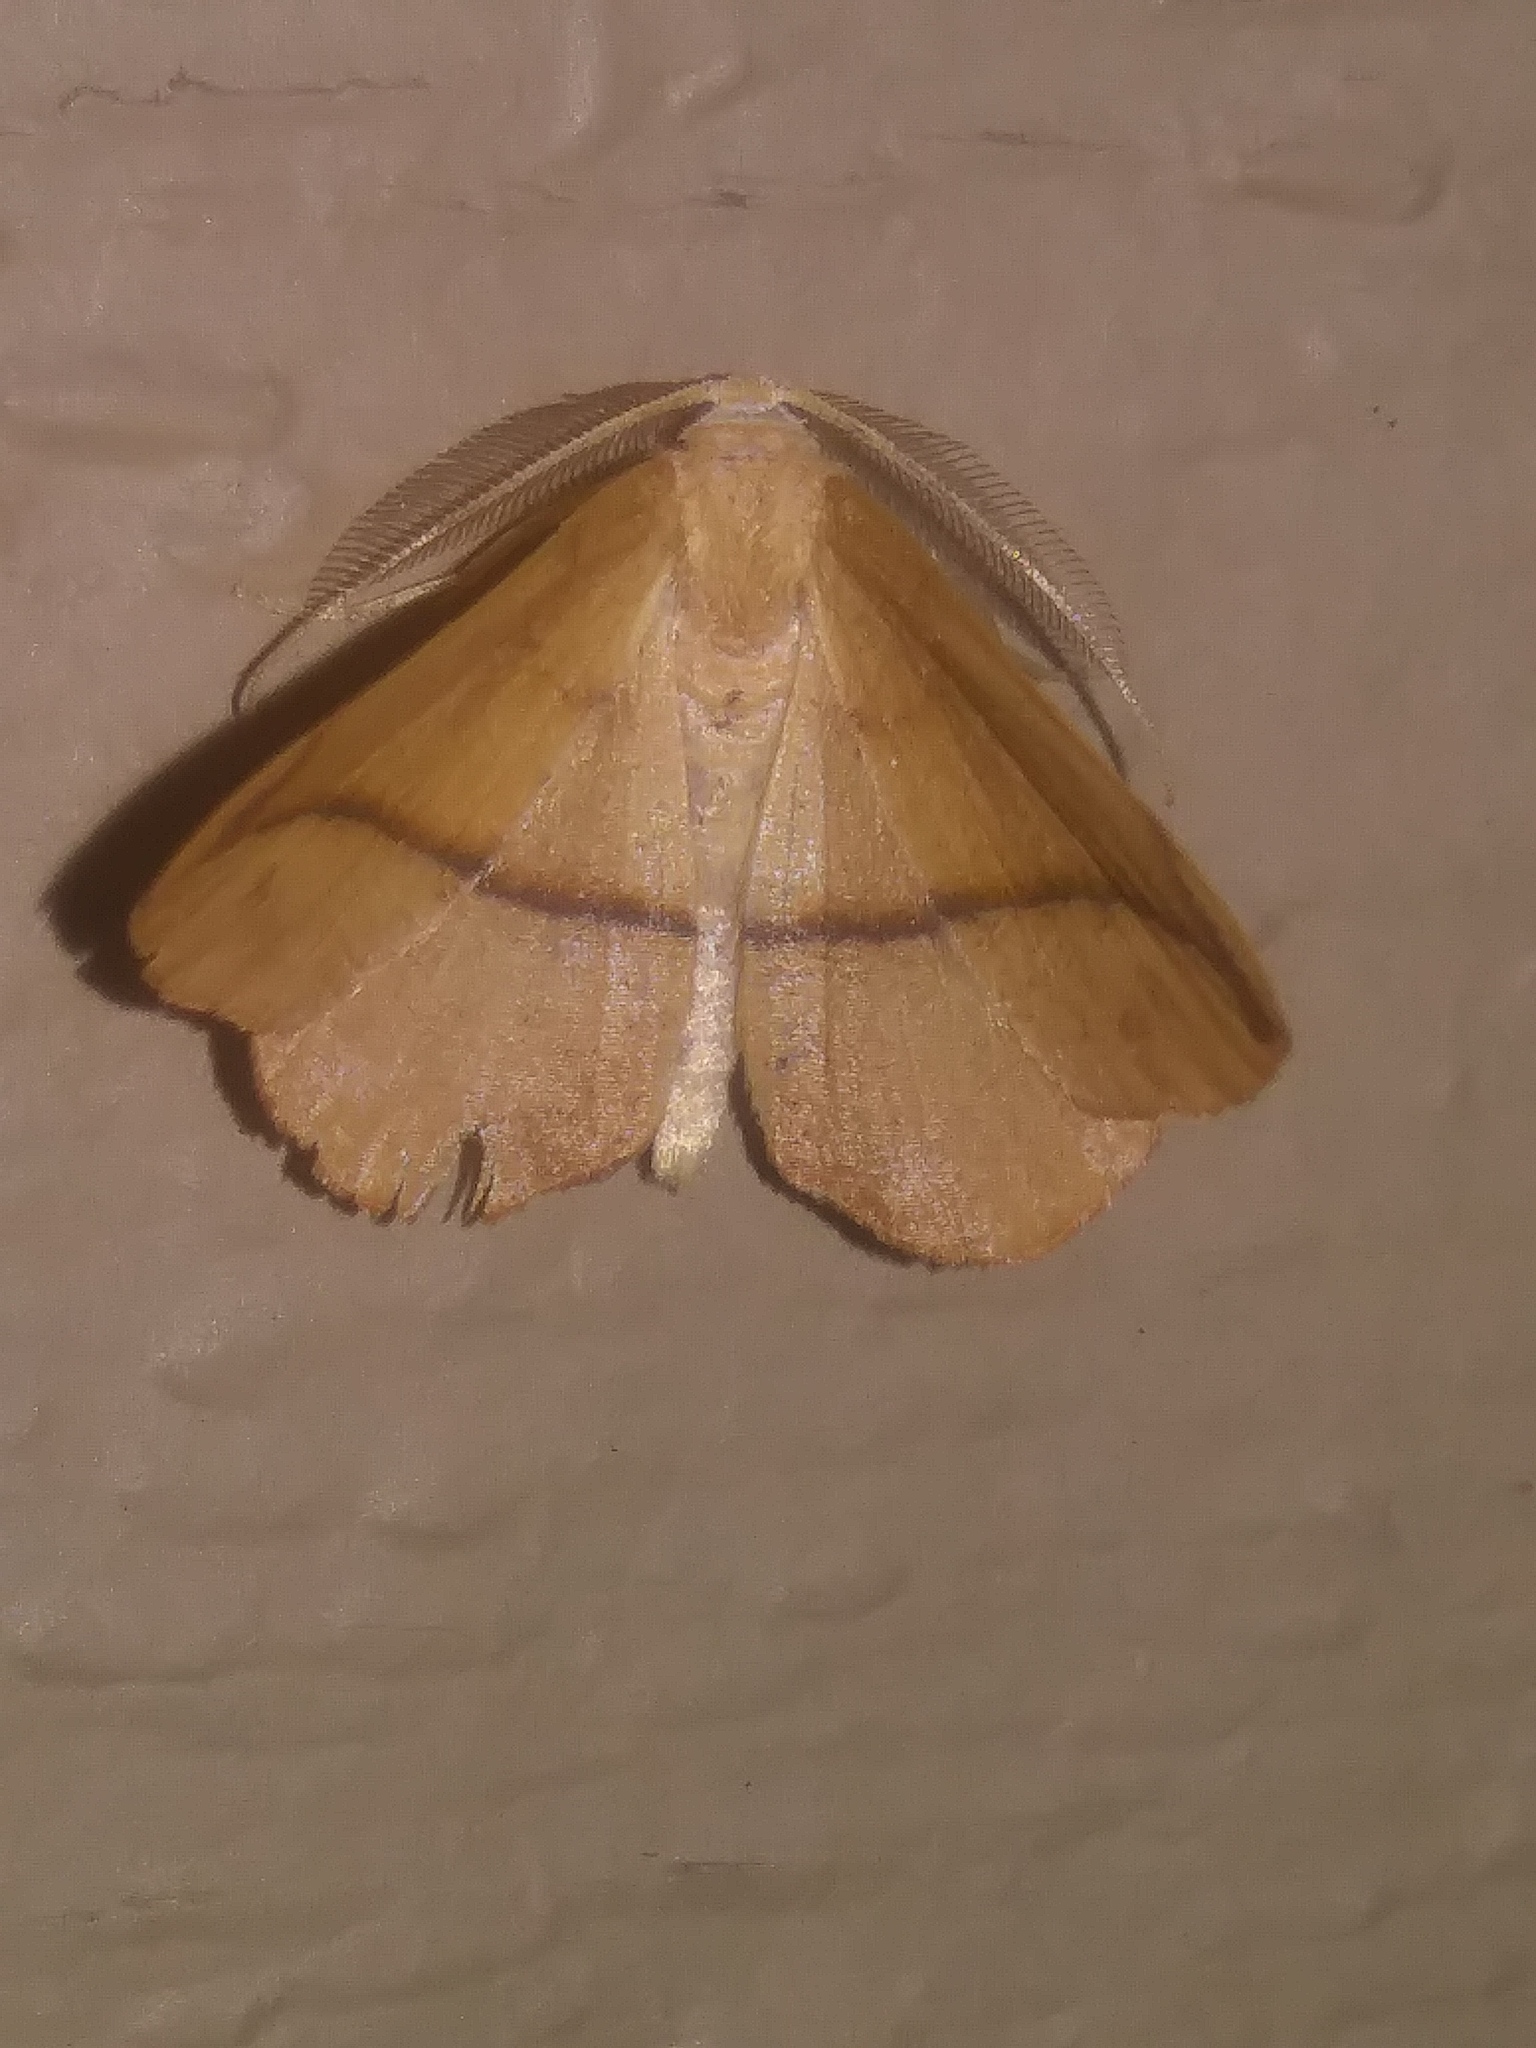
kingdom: Animalia
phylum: Arthropoda
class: Insecta
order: Lepidoptera
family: Geometridae
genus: Patalene
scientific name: Patalene olyzonaria
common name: Juniper geometer moth
